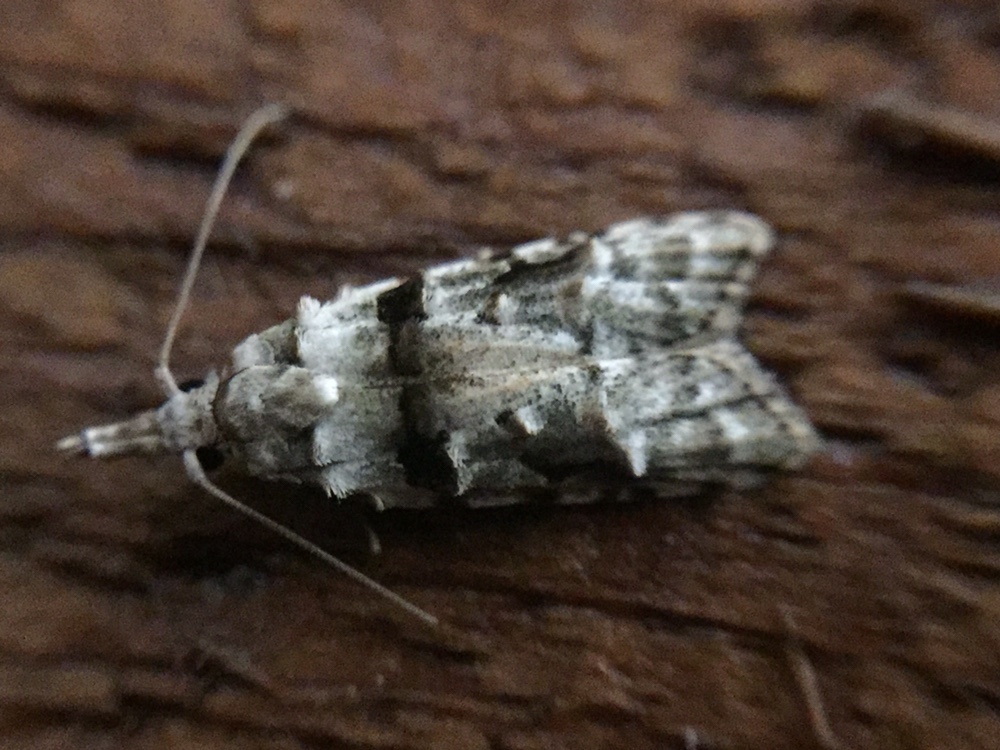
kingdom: Animalia
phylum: Arthropoda
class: Insecta
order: Lepidoptera
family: Carposinidae
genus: Coscinoptycha
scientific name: Coscinoptycha improbana
